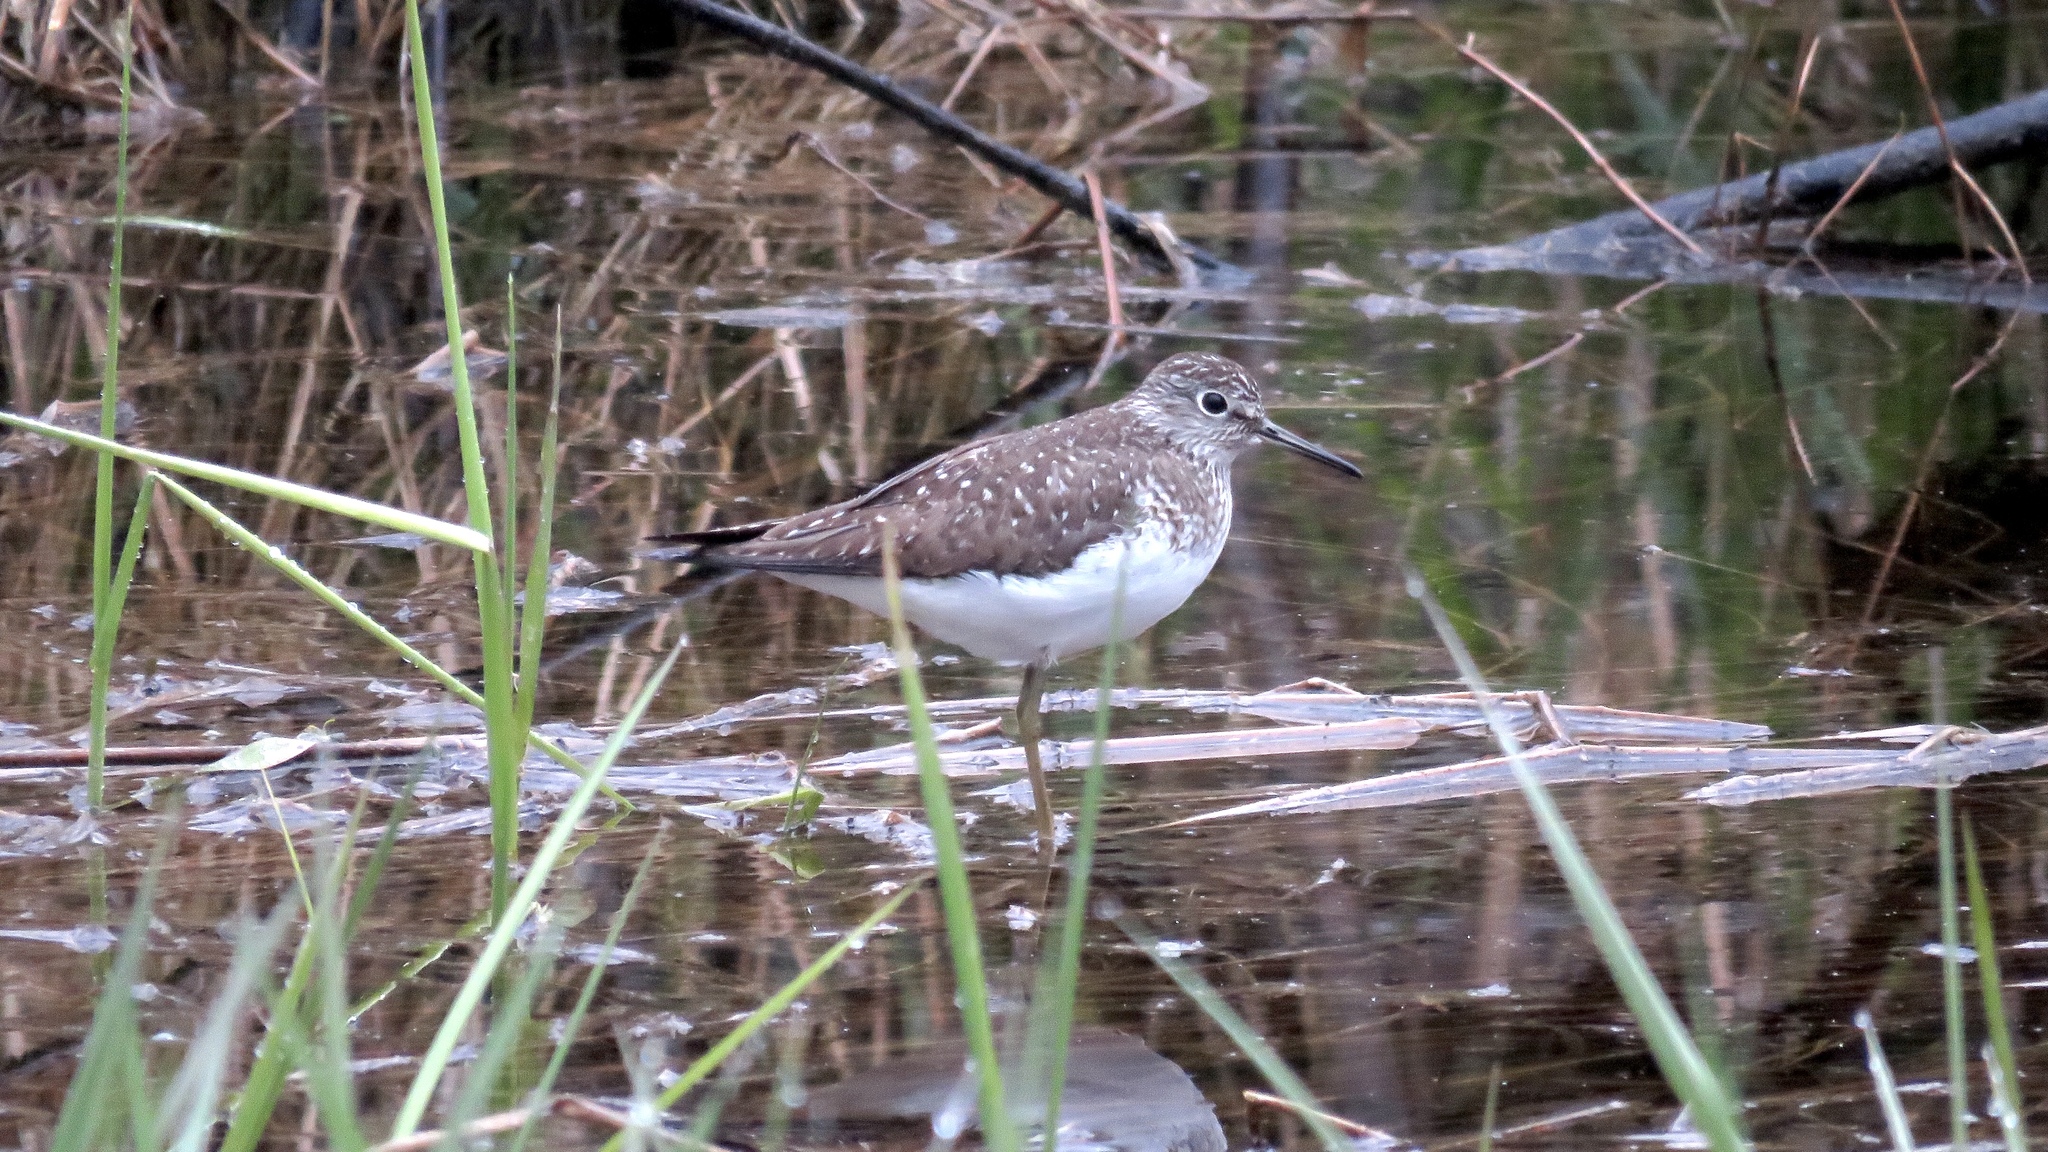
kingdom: Animalia
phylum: Chordata
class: Aves
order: Charadriiformes
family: Scolopacidae
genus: Tringa
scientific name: Tringa solitaria
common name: Solitary sandpiper
